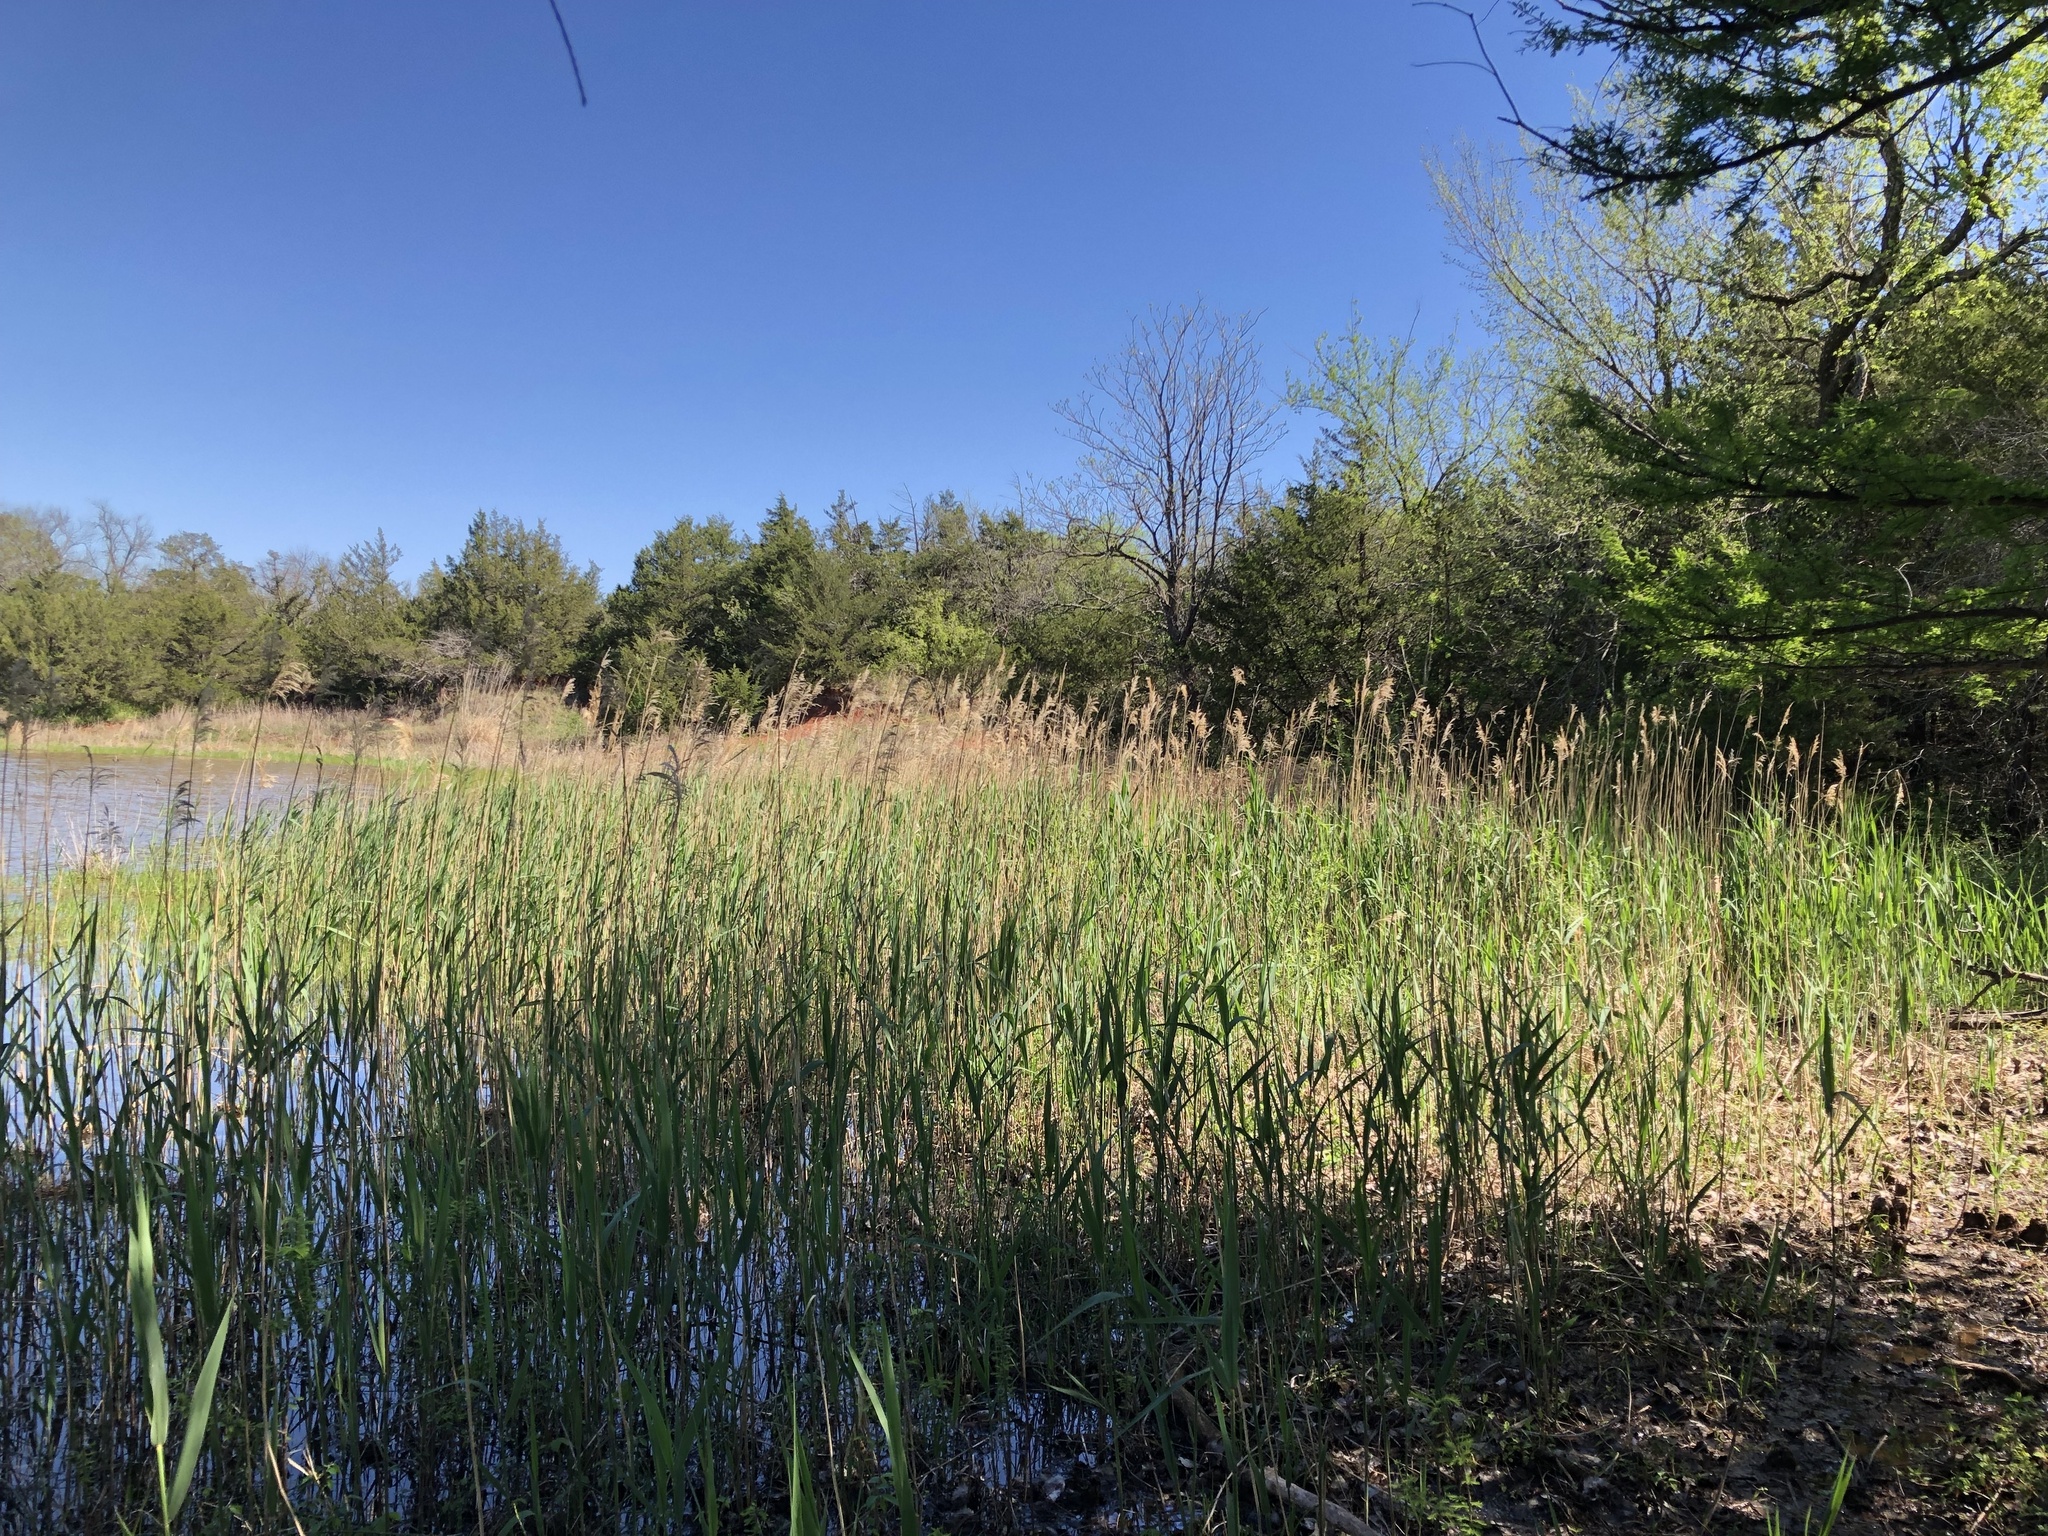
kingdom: Plantae
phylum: Tracheophyta
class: Liliopsida
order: Poales
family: Poaceae
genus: Phragmites
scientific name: Phragmites australis
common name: Common reed
